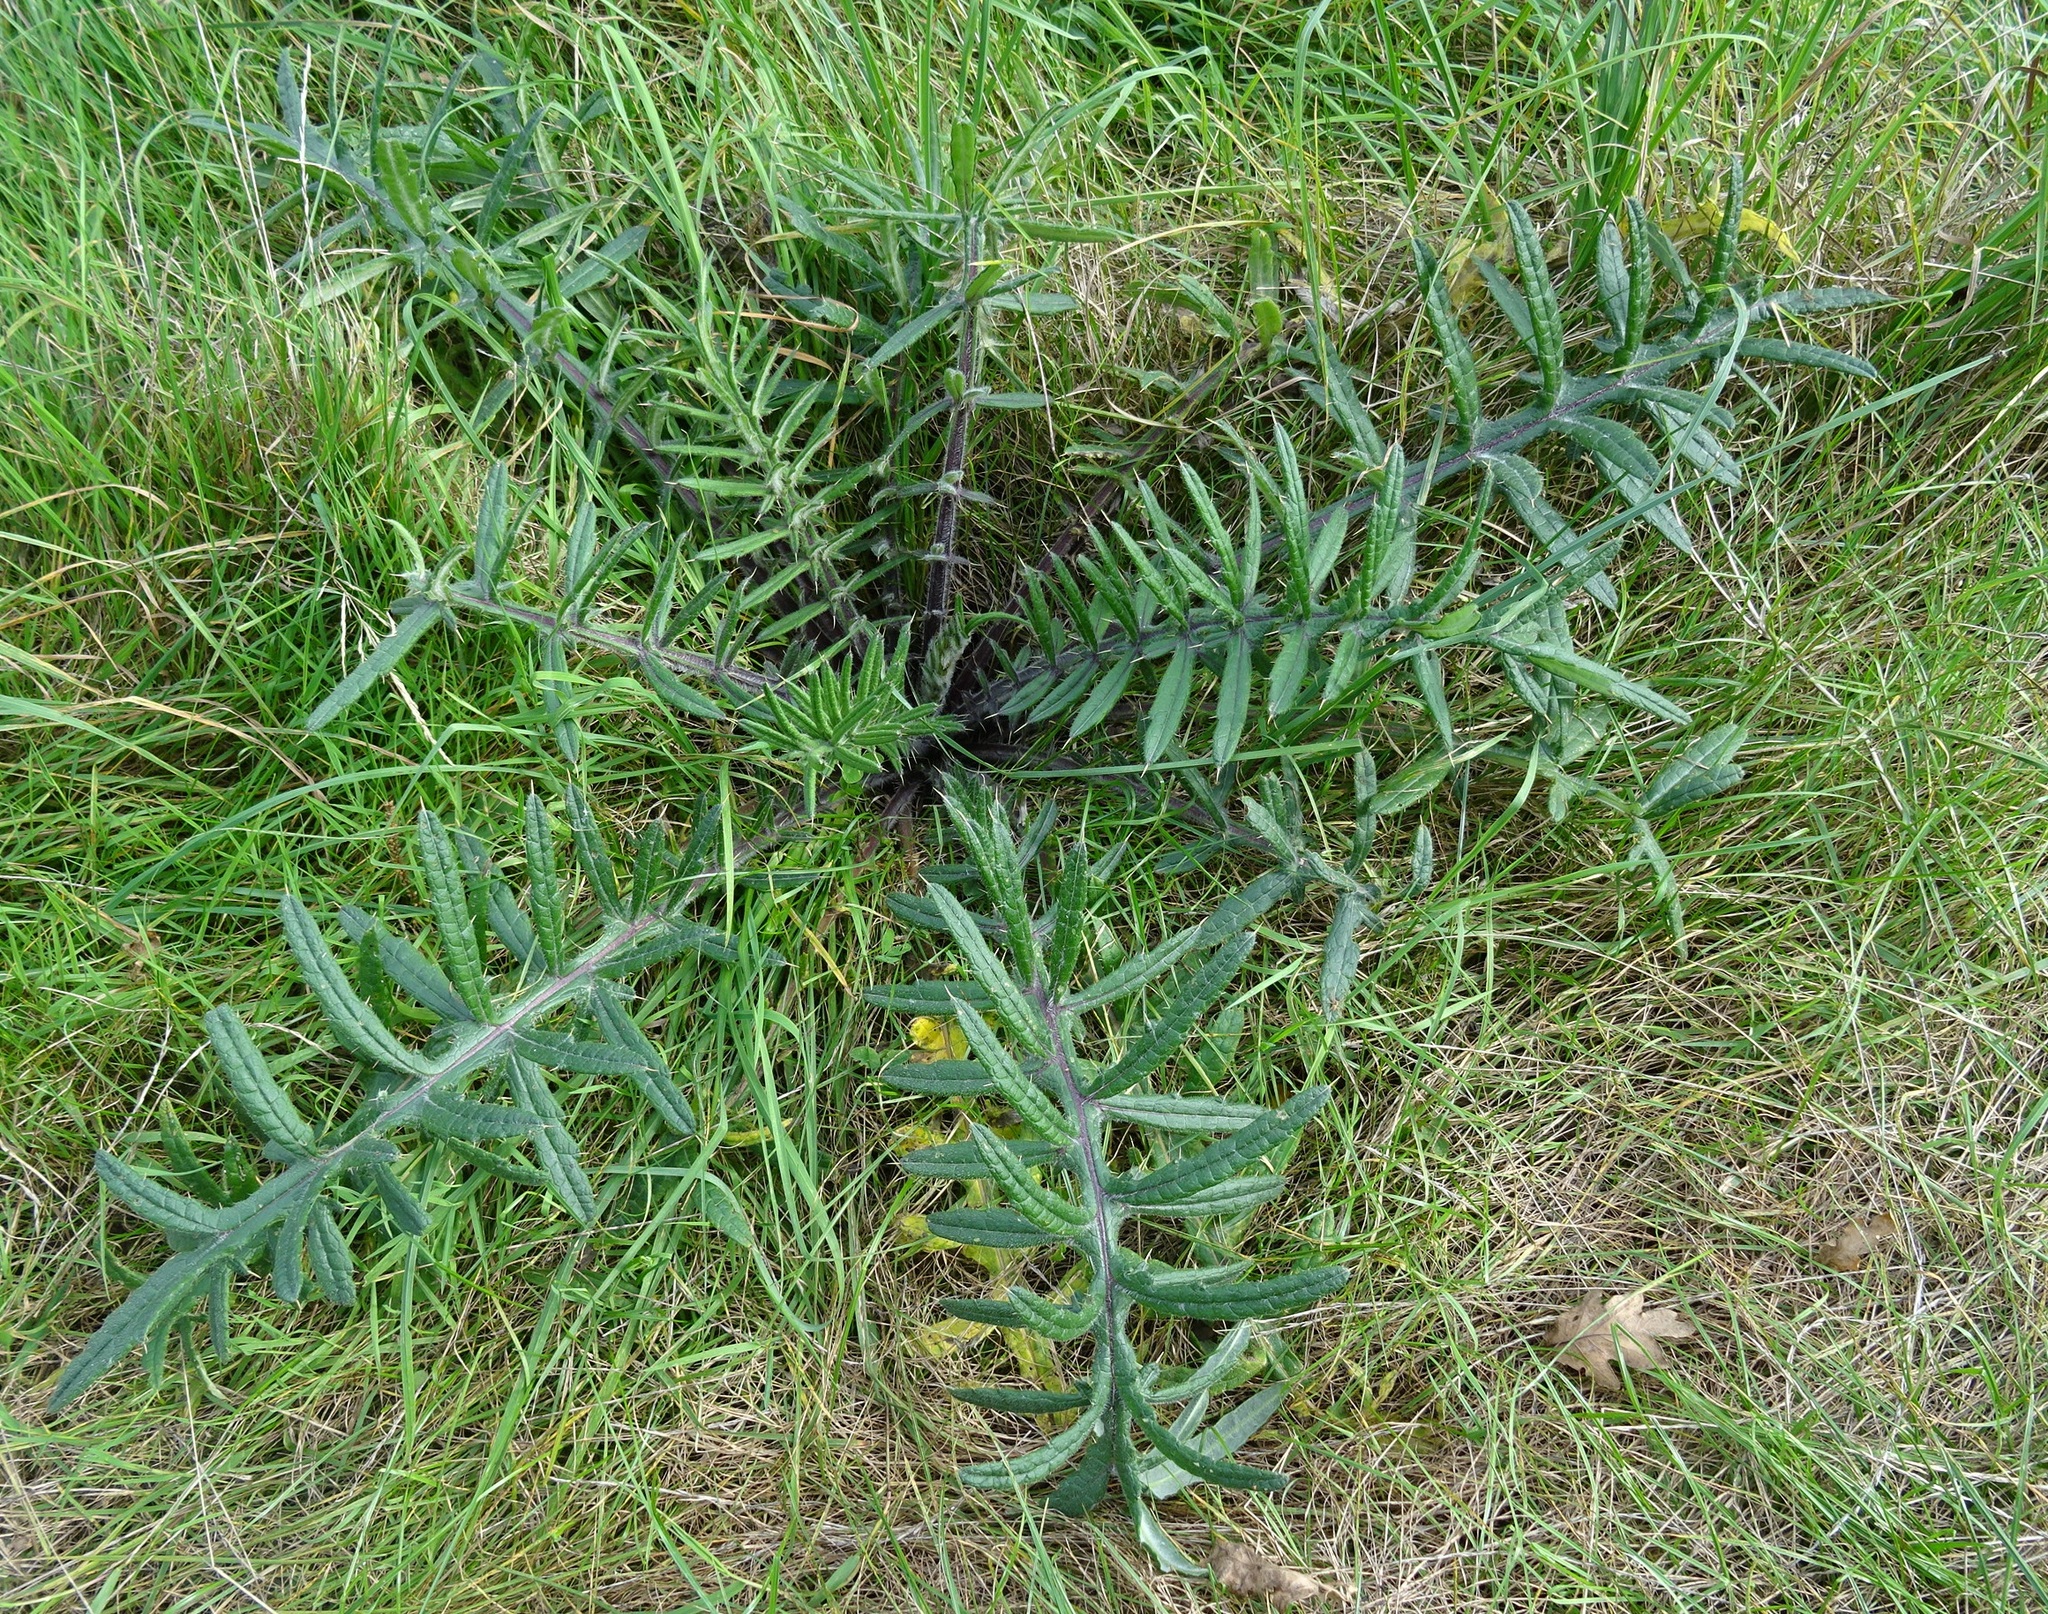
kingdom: Plantae
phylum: Tracheophyta
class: Magnoliopsida
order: Asterales
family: Asteraceae
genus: Lophiolepis
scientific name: Lophiolepis eriophora
